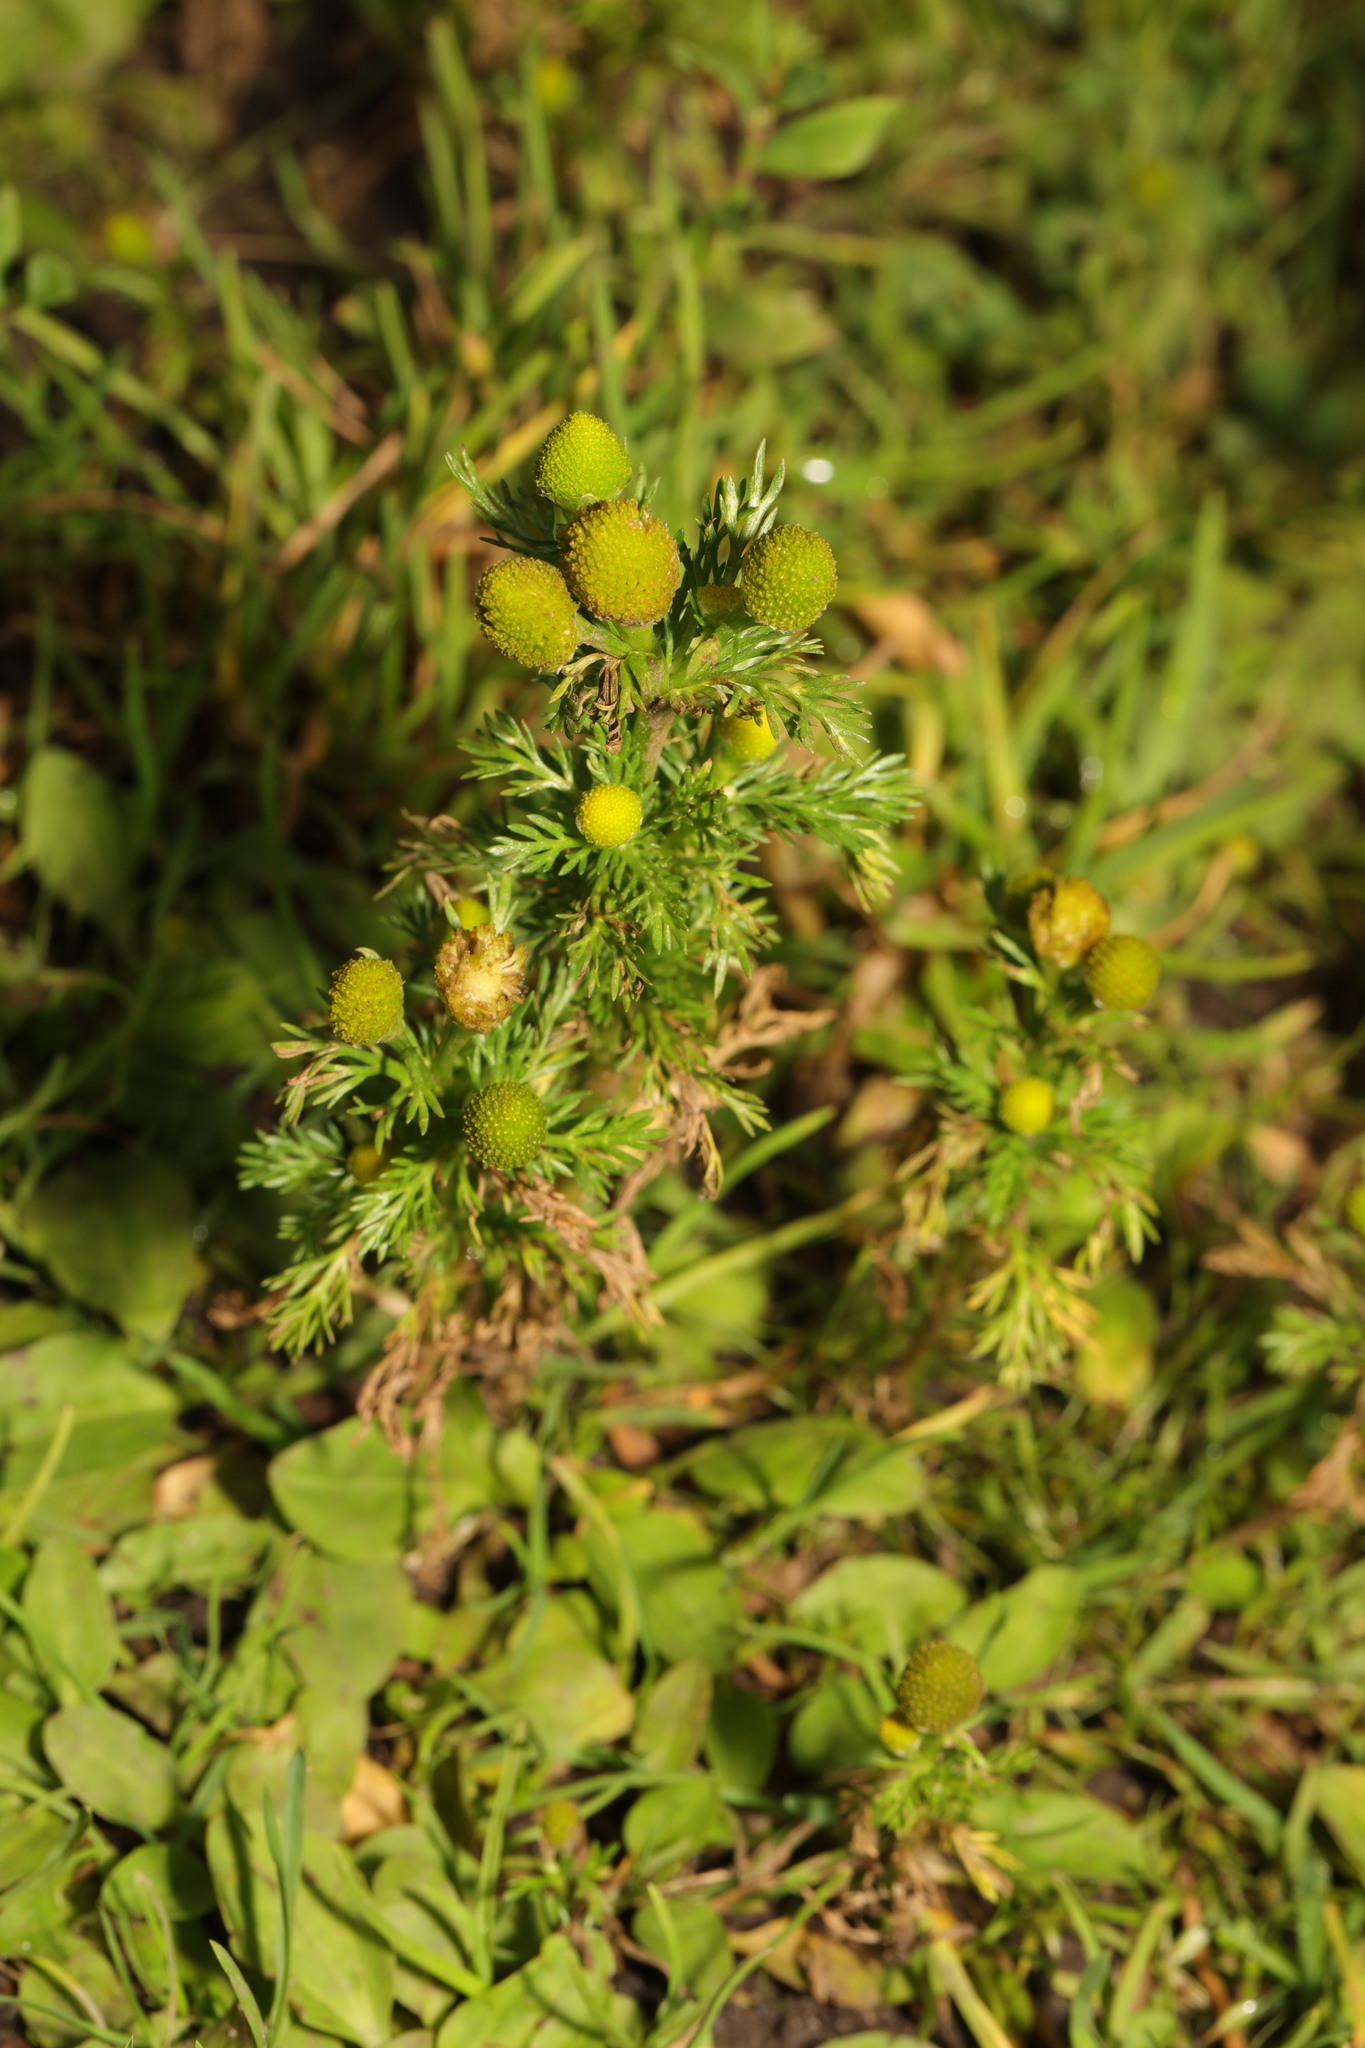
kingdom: Plantae
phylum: Tracheophyta
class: Magnoliopsida
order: Asterales
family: Asteraceae
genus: Matricaria
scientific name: Matricaria discoidea
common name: Disc mayweed
